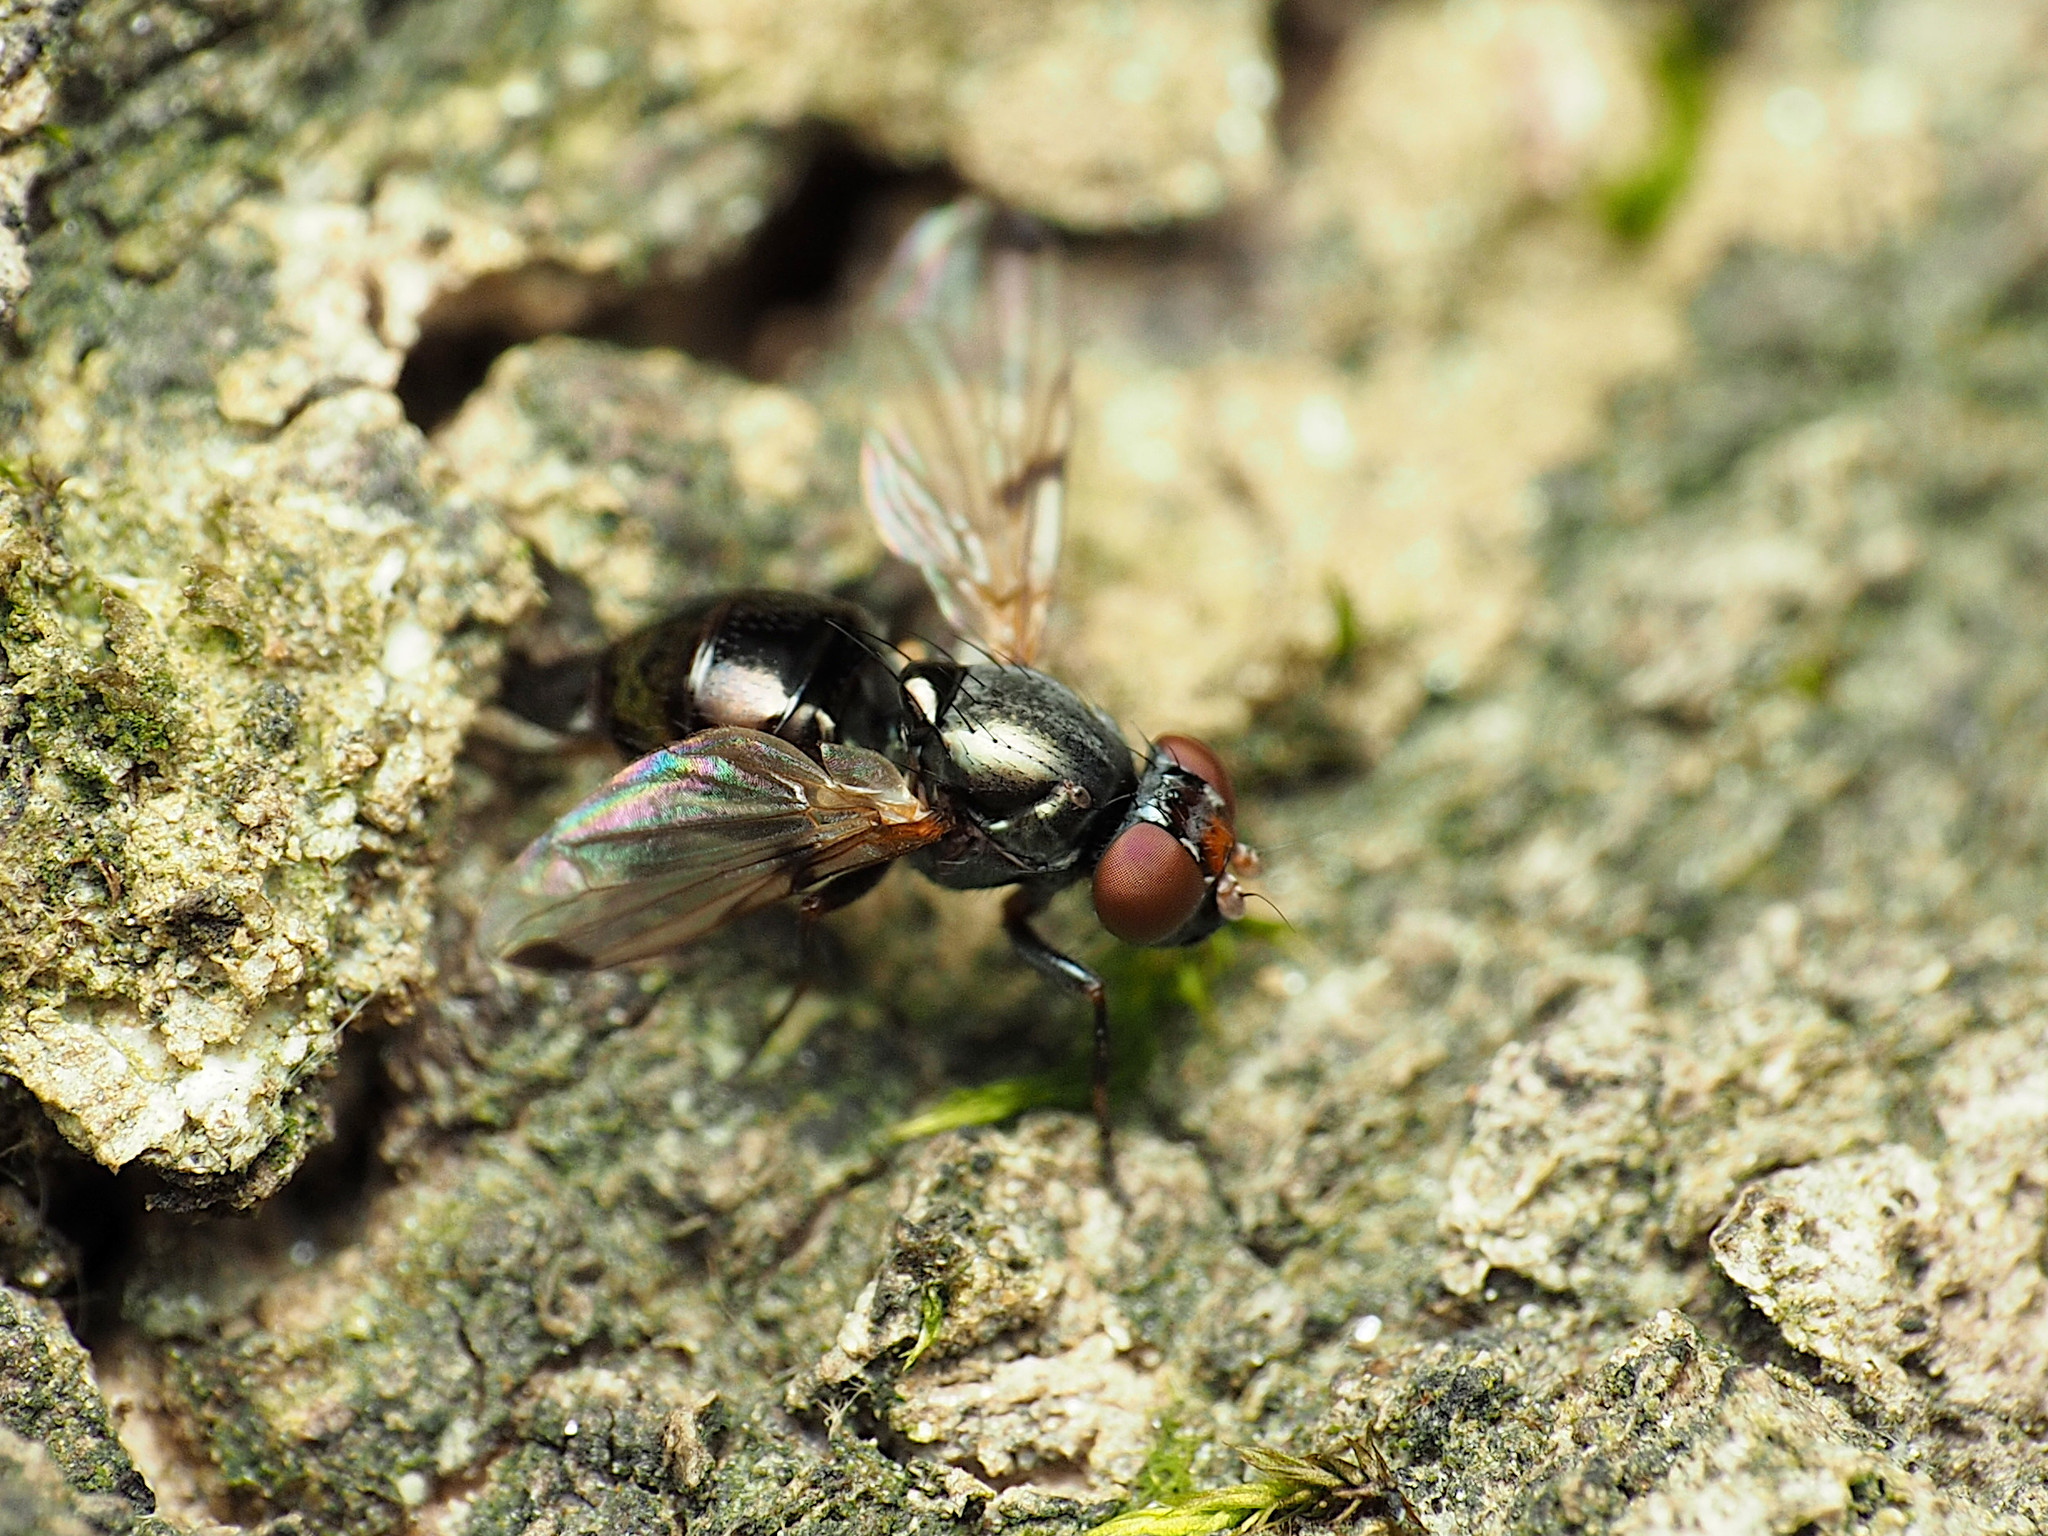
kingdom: Animalia
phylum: Arthropoda
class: Insecta
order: Diptera
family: Ulidiidae
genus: Euxesta
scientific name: Euxesta pechumani
